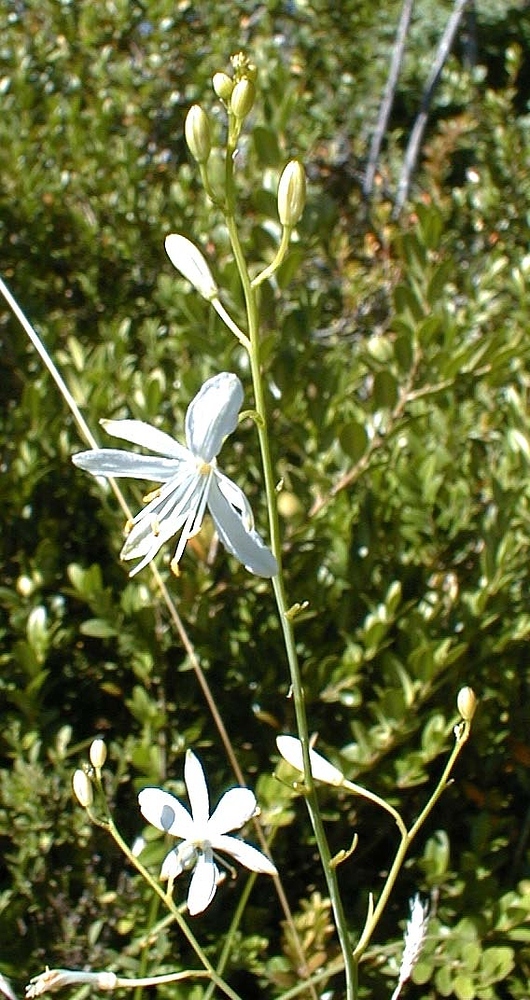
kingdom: Plantae
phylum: Tracheophyta
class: Liliopsida
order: Asparagales
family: Asparagaceae
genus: Anthericum
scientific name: Anthericum ramosum
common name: Branched st. bernard's-lily
